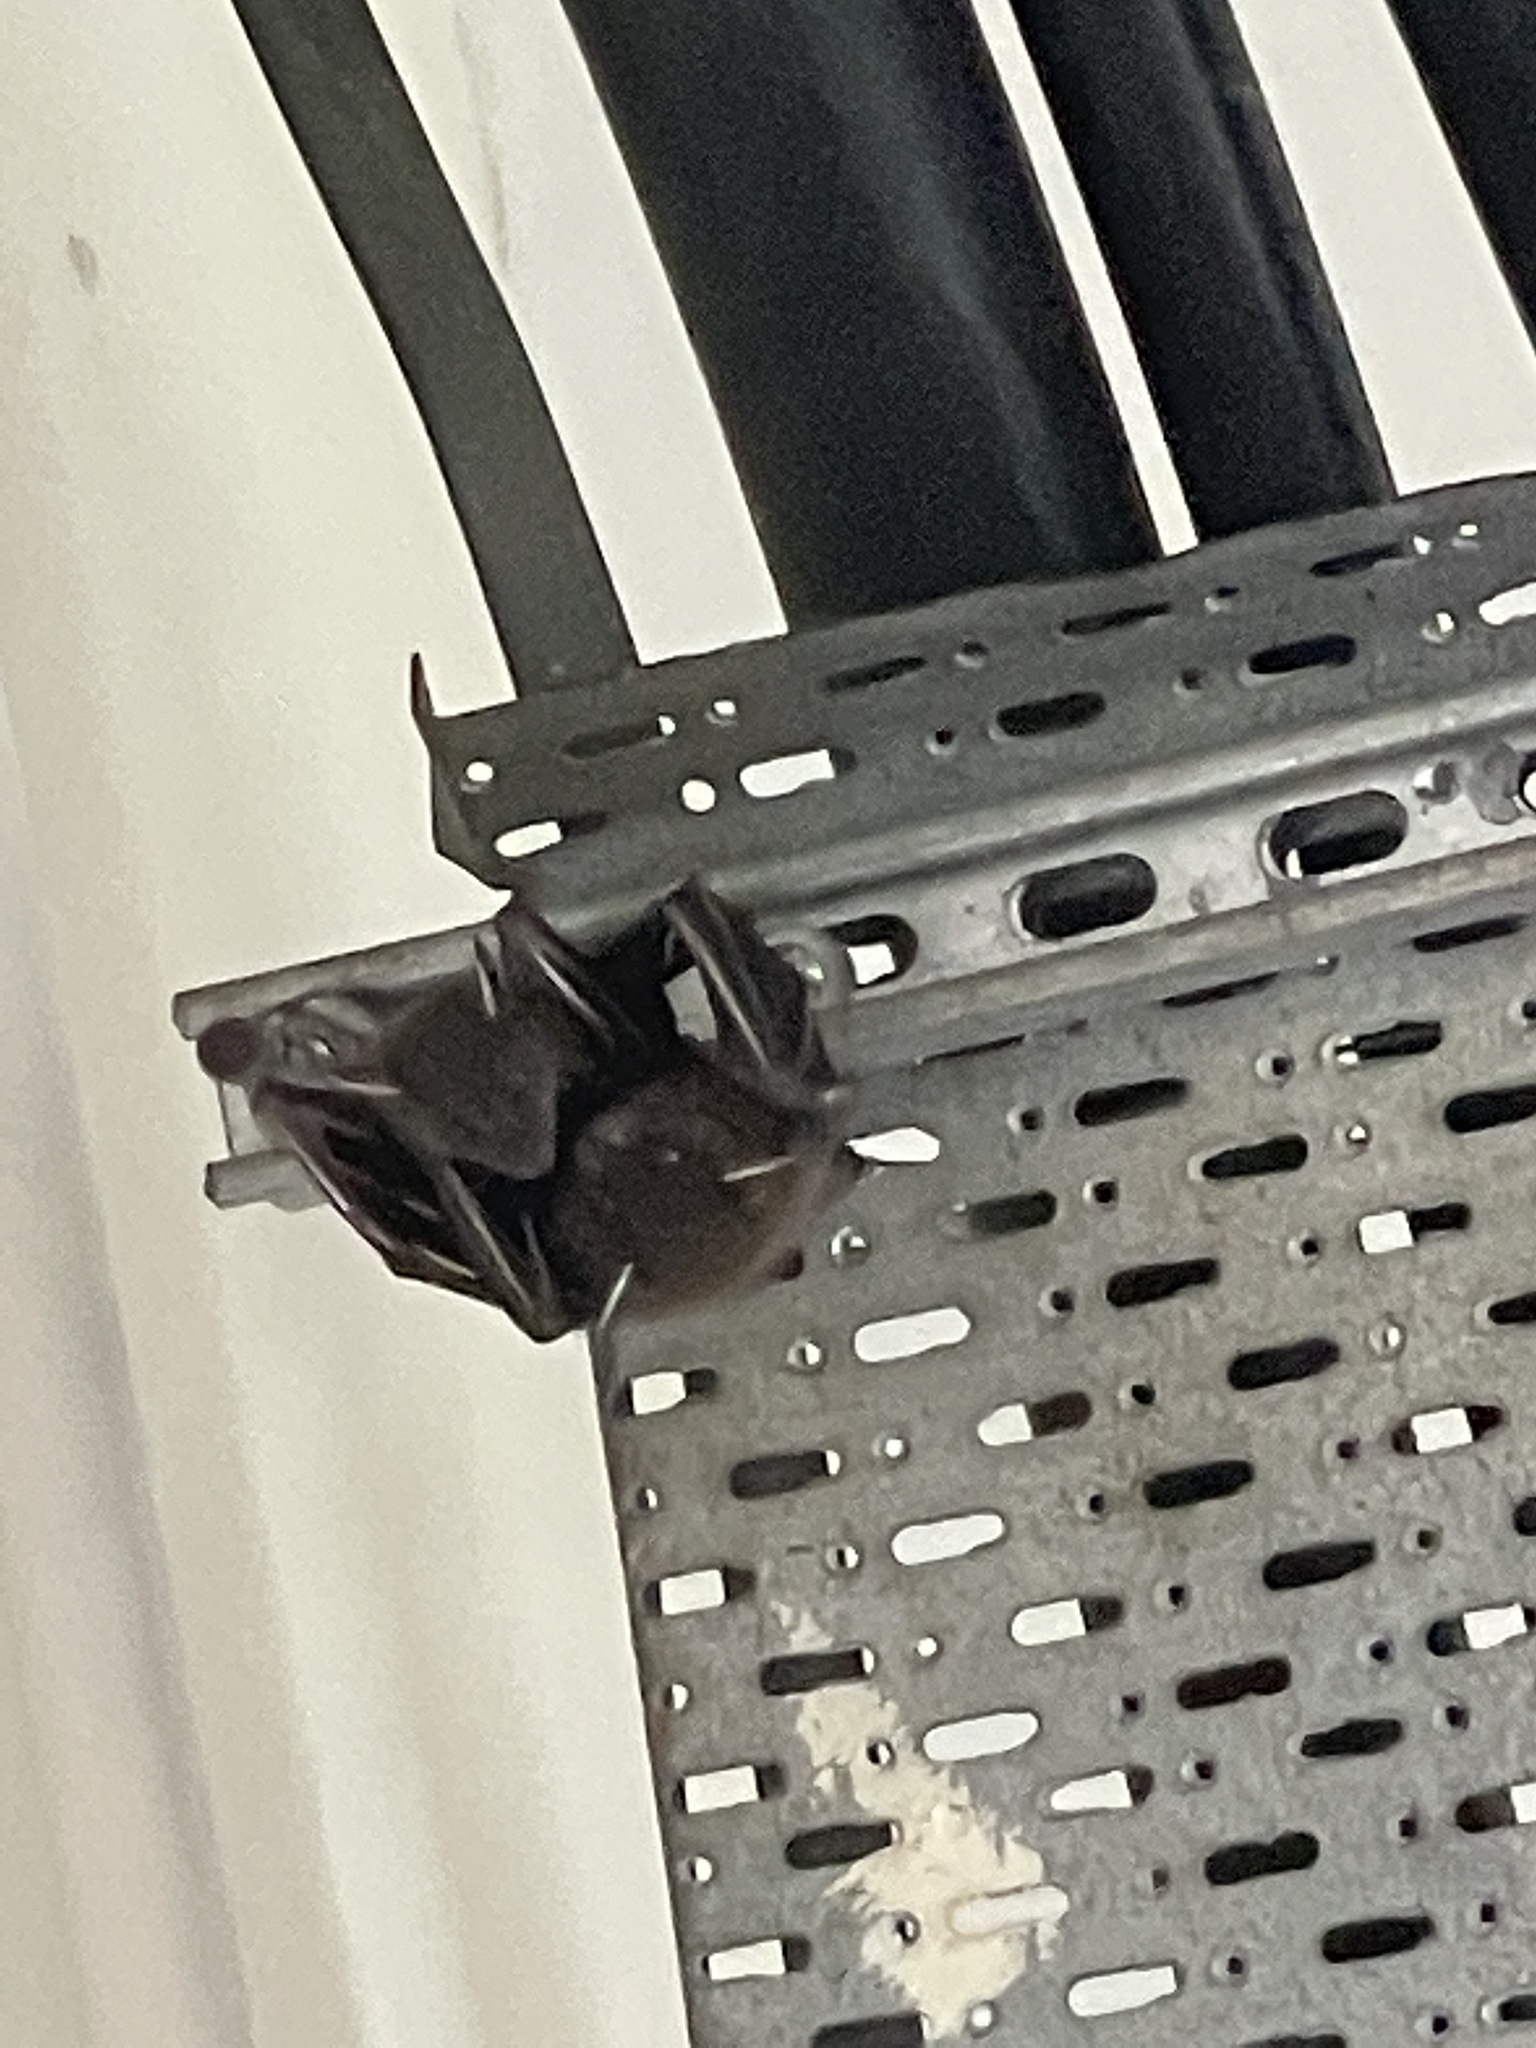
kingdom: Animalia
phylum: Chordata
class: Mammalia
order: Chiroptera
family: Pteropodidae
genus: Cynopterus
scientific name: Cynopterus sphinx
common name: Greater short-nosed fruit bat
